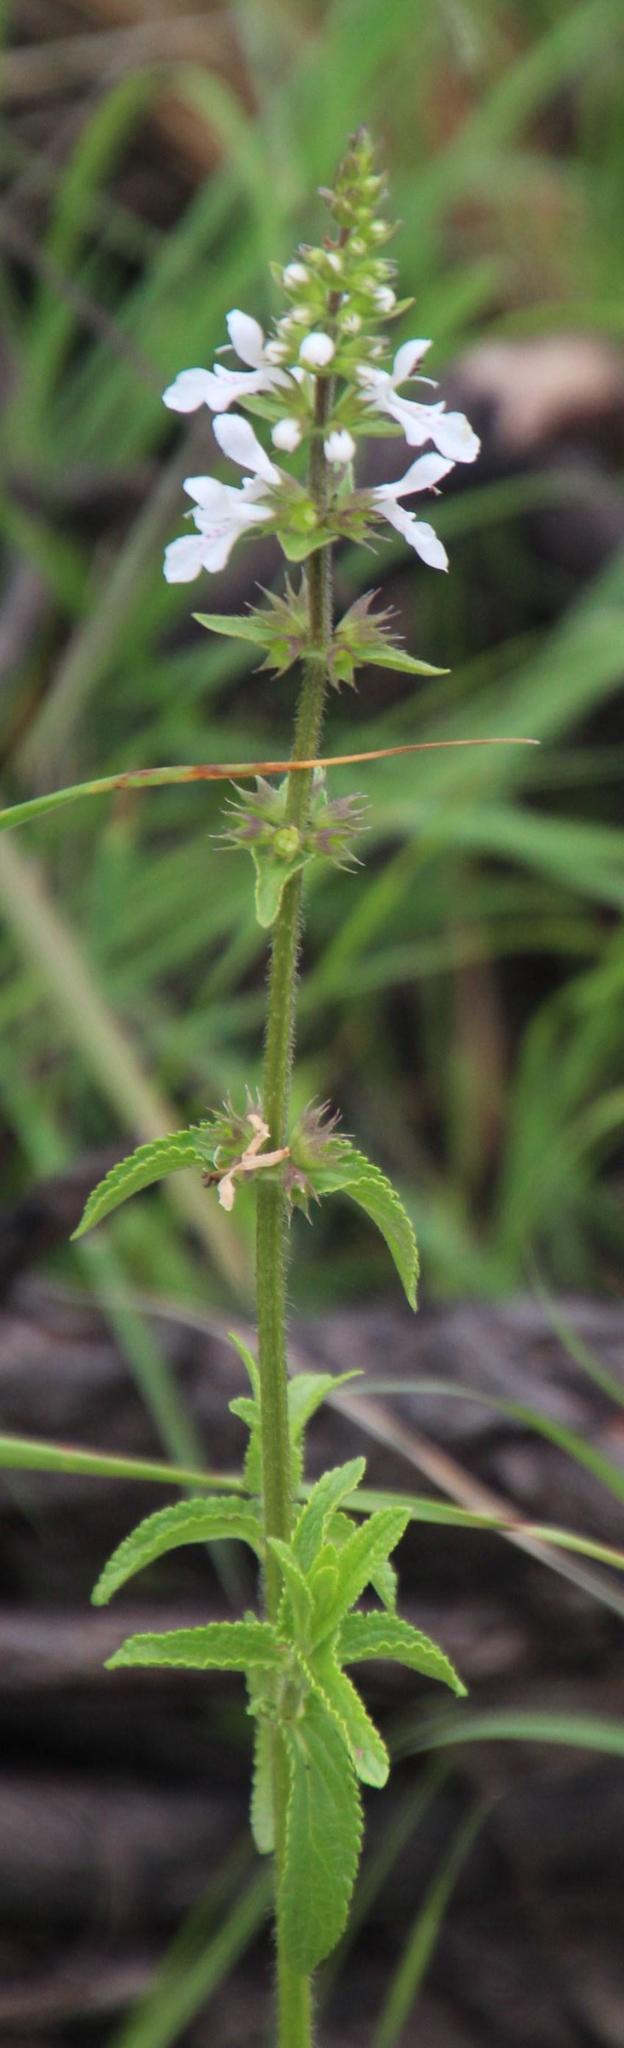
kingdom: Plantae
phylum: Tracheophyta
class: Magnoliopsida
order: Lamiales
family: Lamiaceae
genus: Stachys
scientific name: Stachys aethiopica
